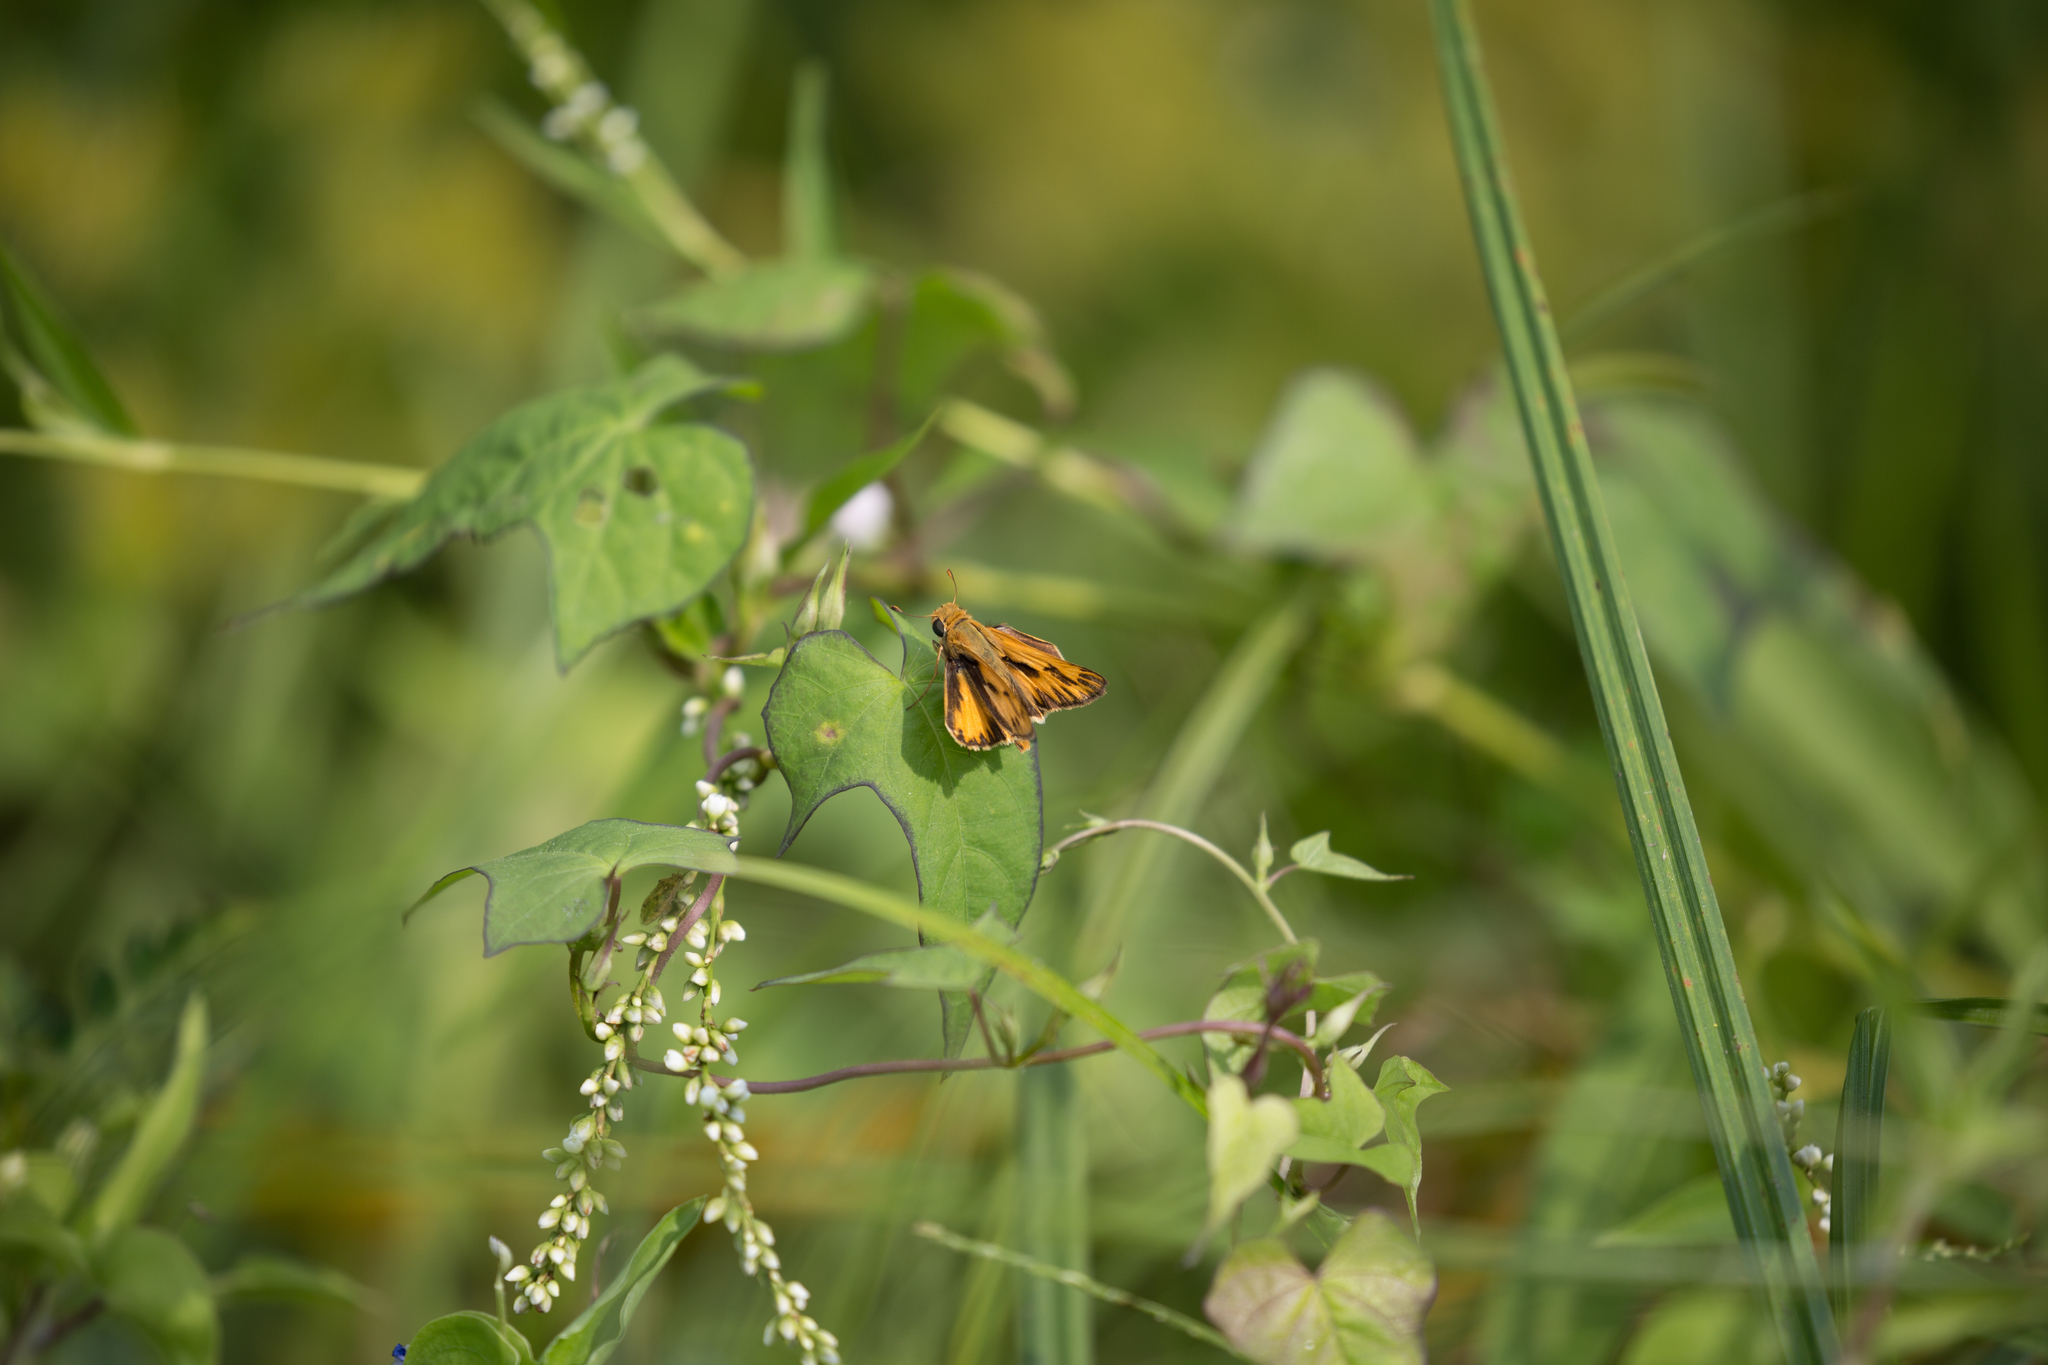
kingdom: Animalia
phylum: Arthropoda
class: Insecta
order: Lepidoptera
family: Hesperiidae
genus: Hylephila
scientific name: Hylephila phyleus
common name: Fiery skipper
